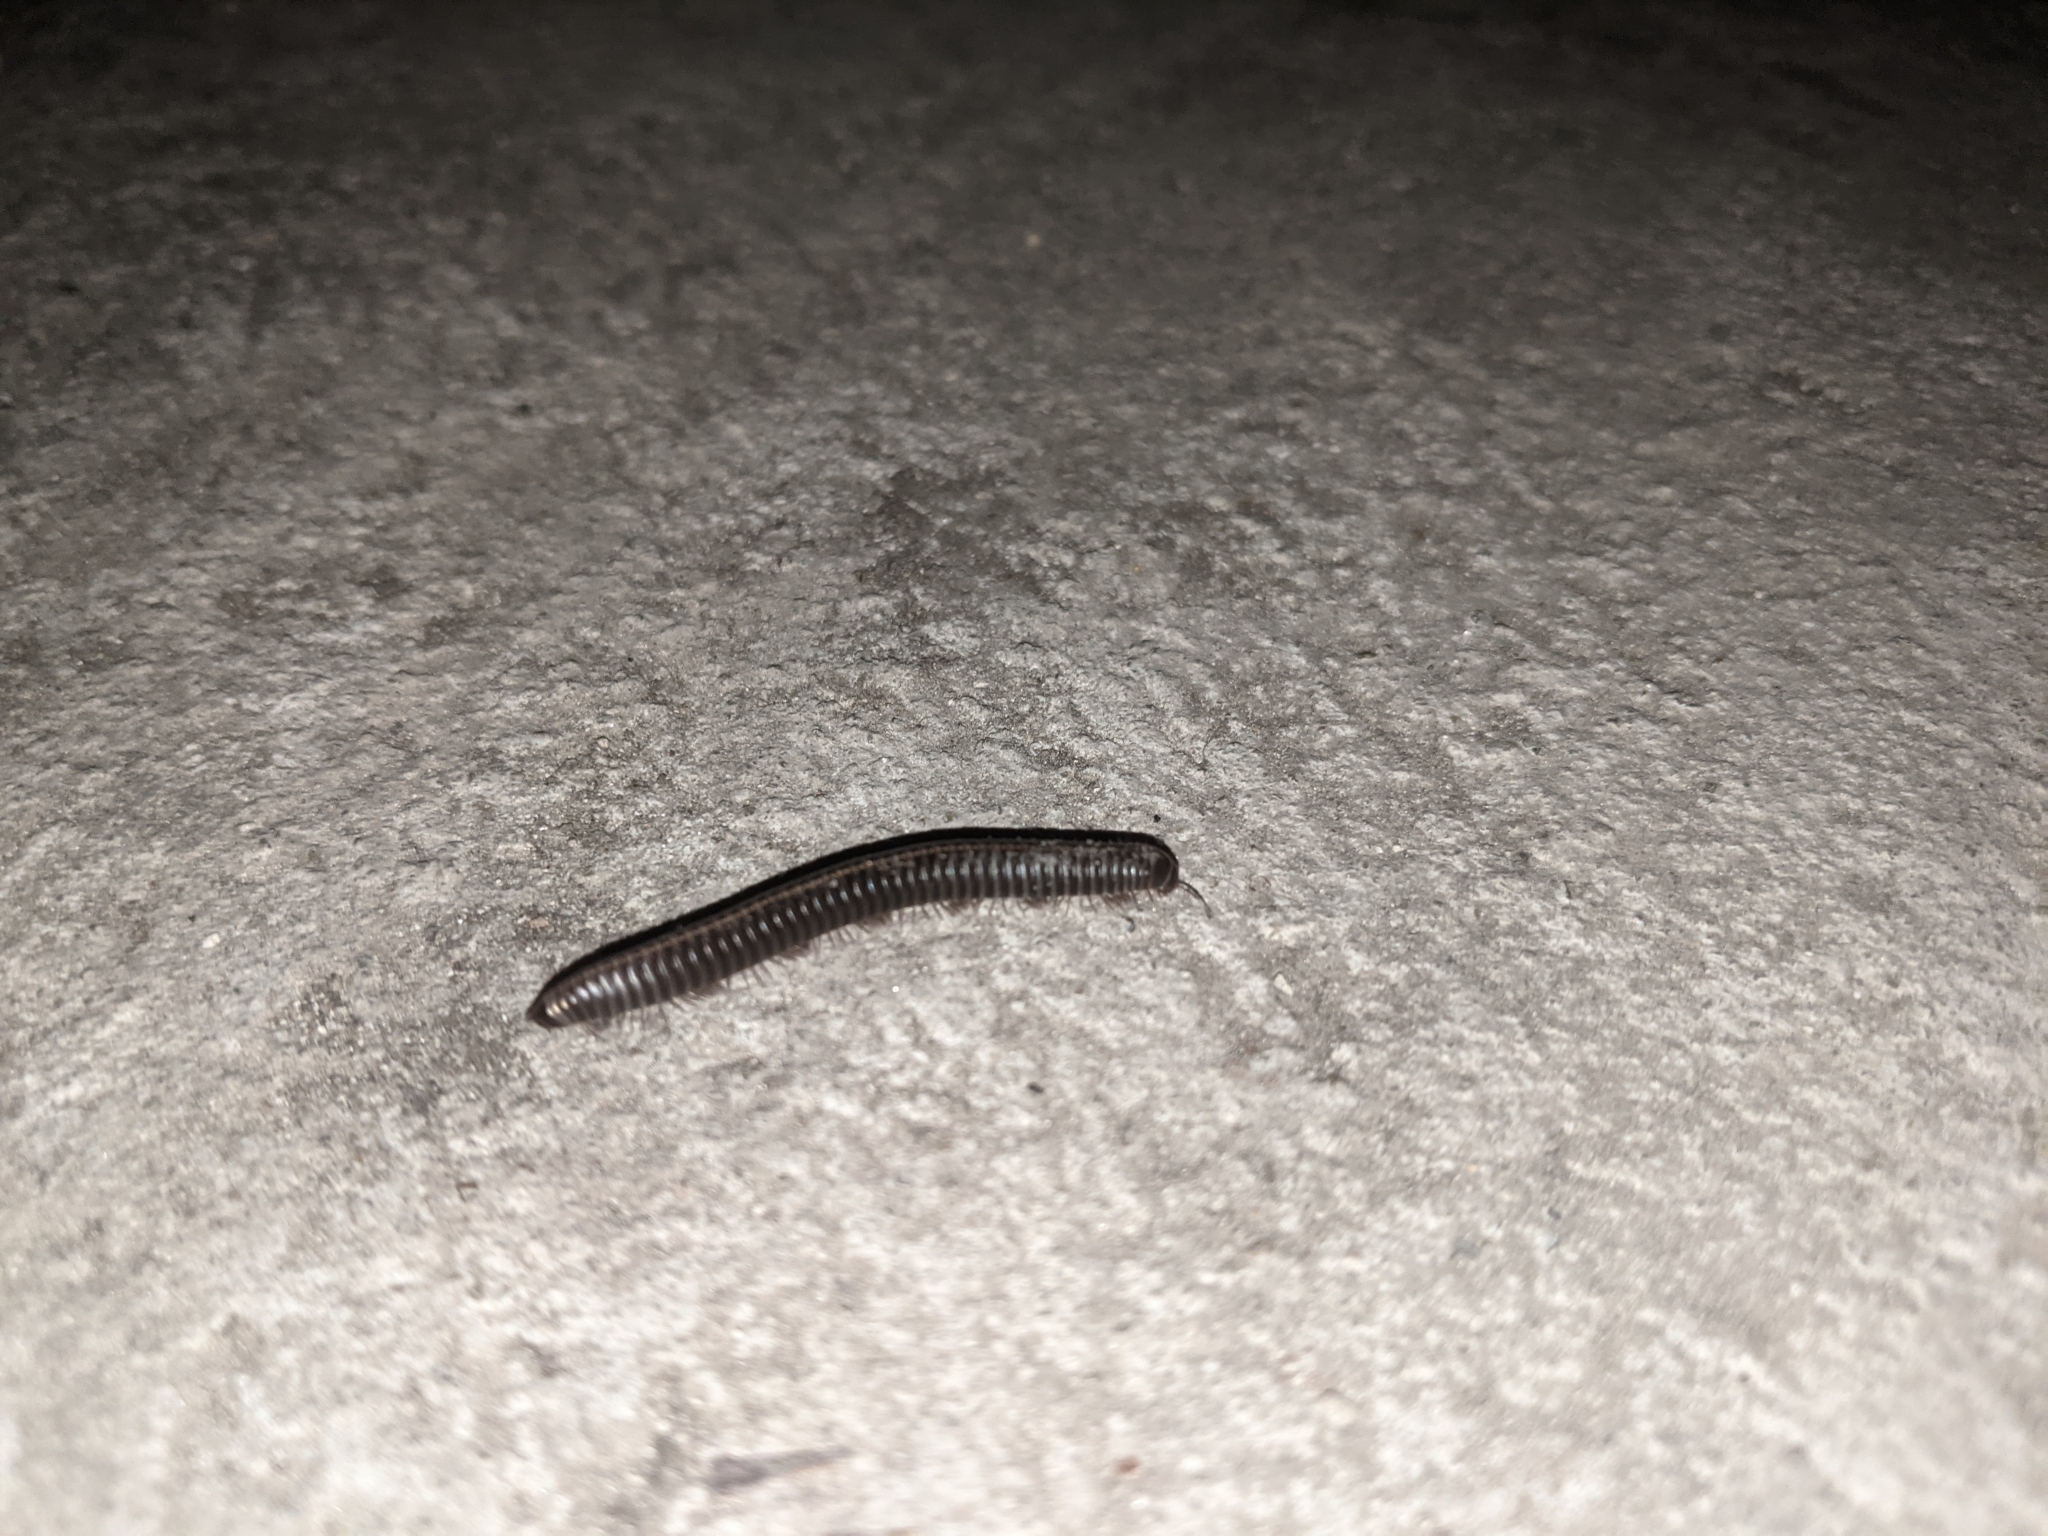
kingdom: Animalia
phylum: Arthropoda
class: Diplopoda
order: Julida
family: Julidae
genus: Megaphyllum
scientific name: Megaphyllum unilineatum
